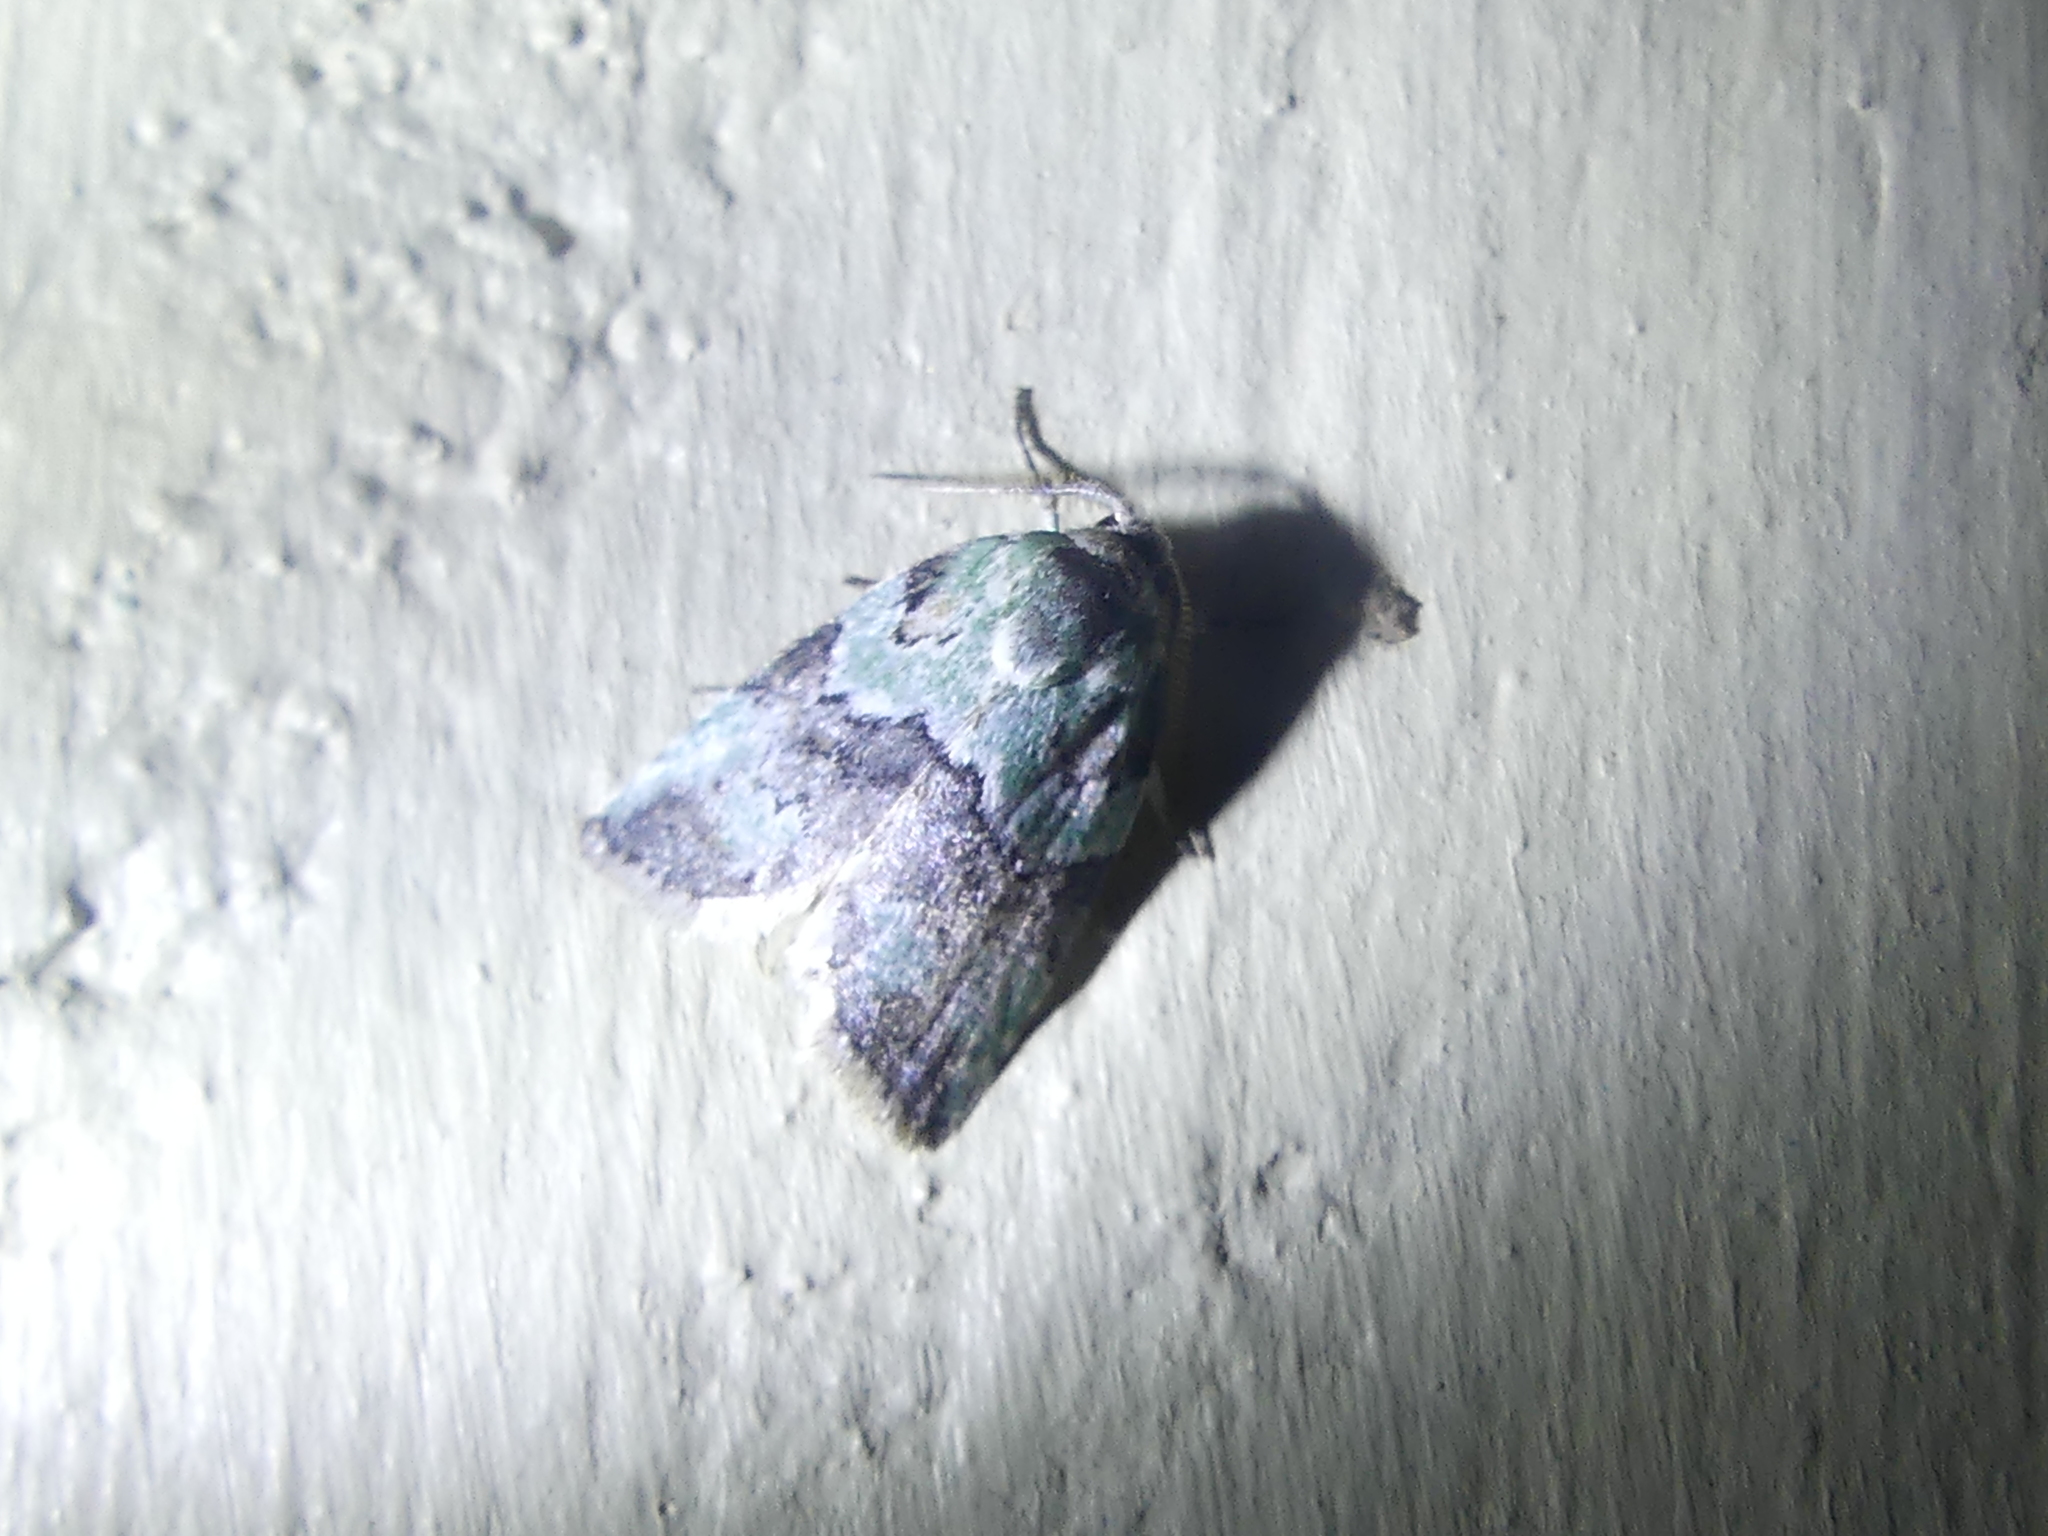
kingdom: Animalia
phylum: Arthropoda
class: Insecta
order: Lepidoptera
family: Nolidae
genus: Afrida
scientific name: Afrida ydatodes
